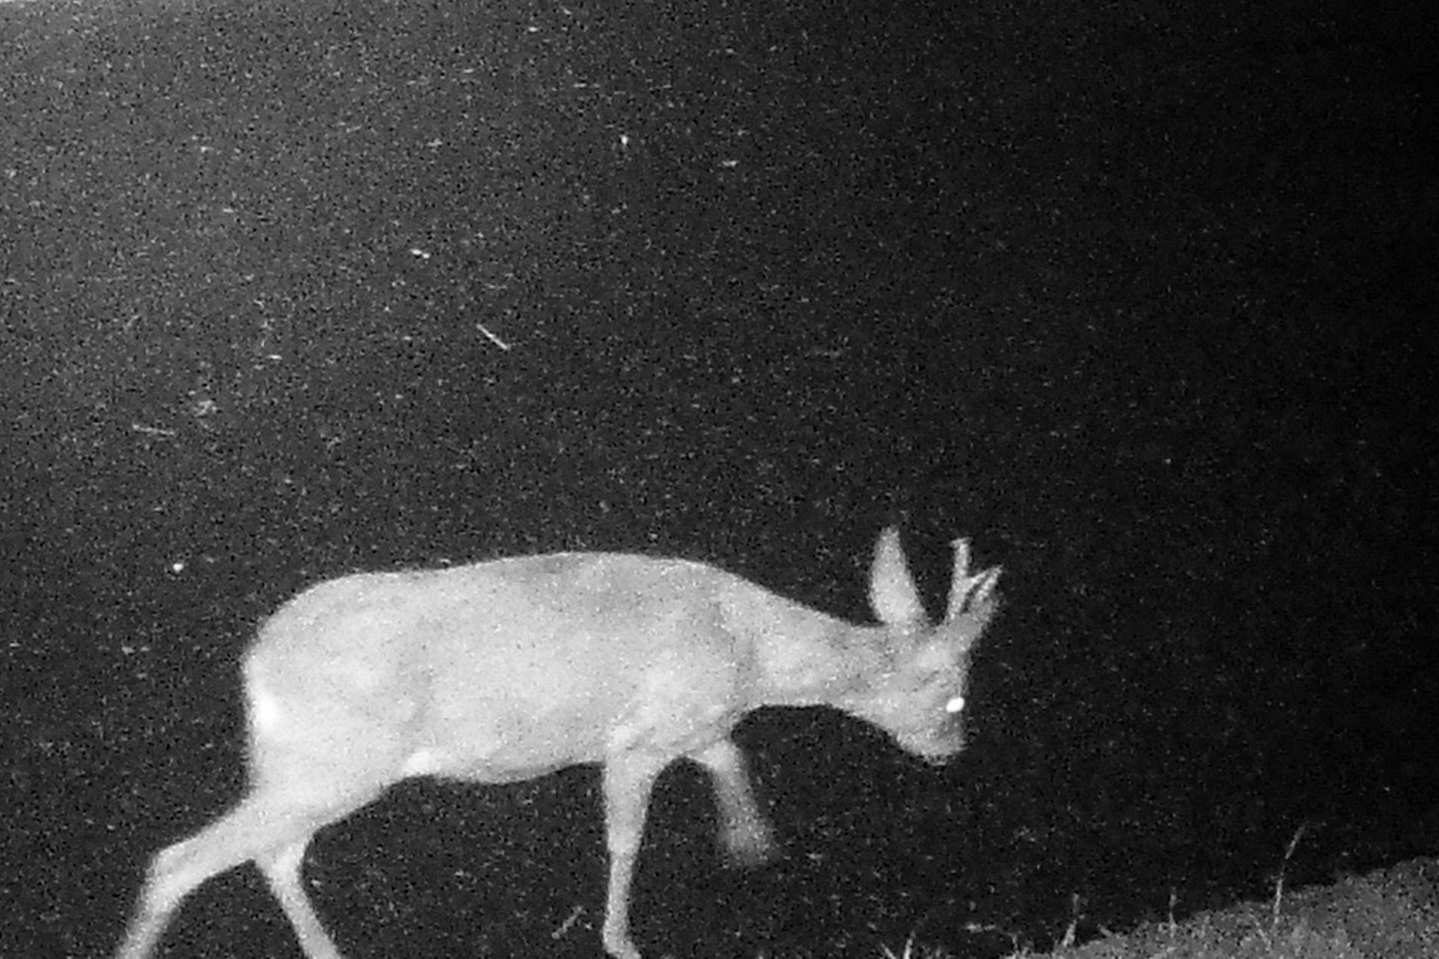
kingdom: Animalia
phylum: Chordata
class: Mammalia
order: Artiodactyla
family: Cervidae
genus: Capreolus
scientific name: Capreolus capreolus
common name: Western roe deer
